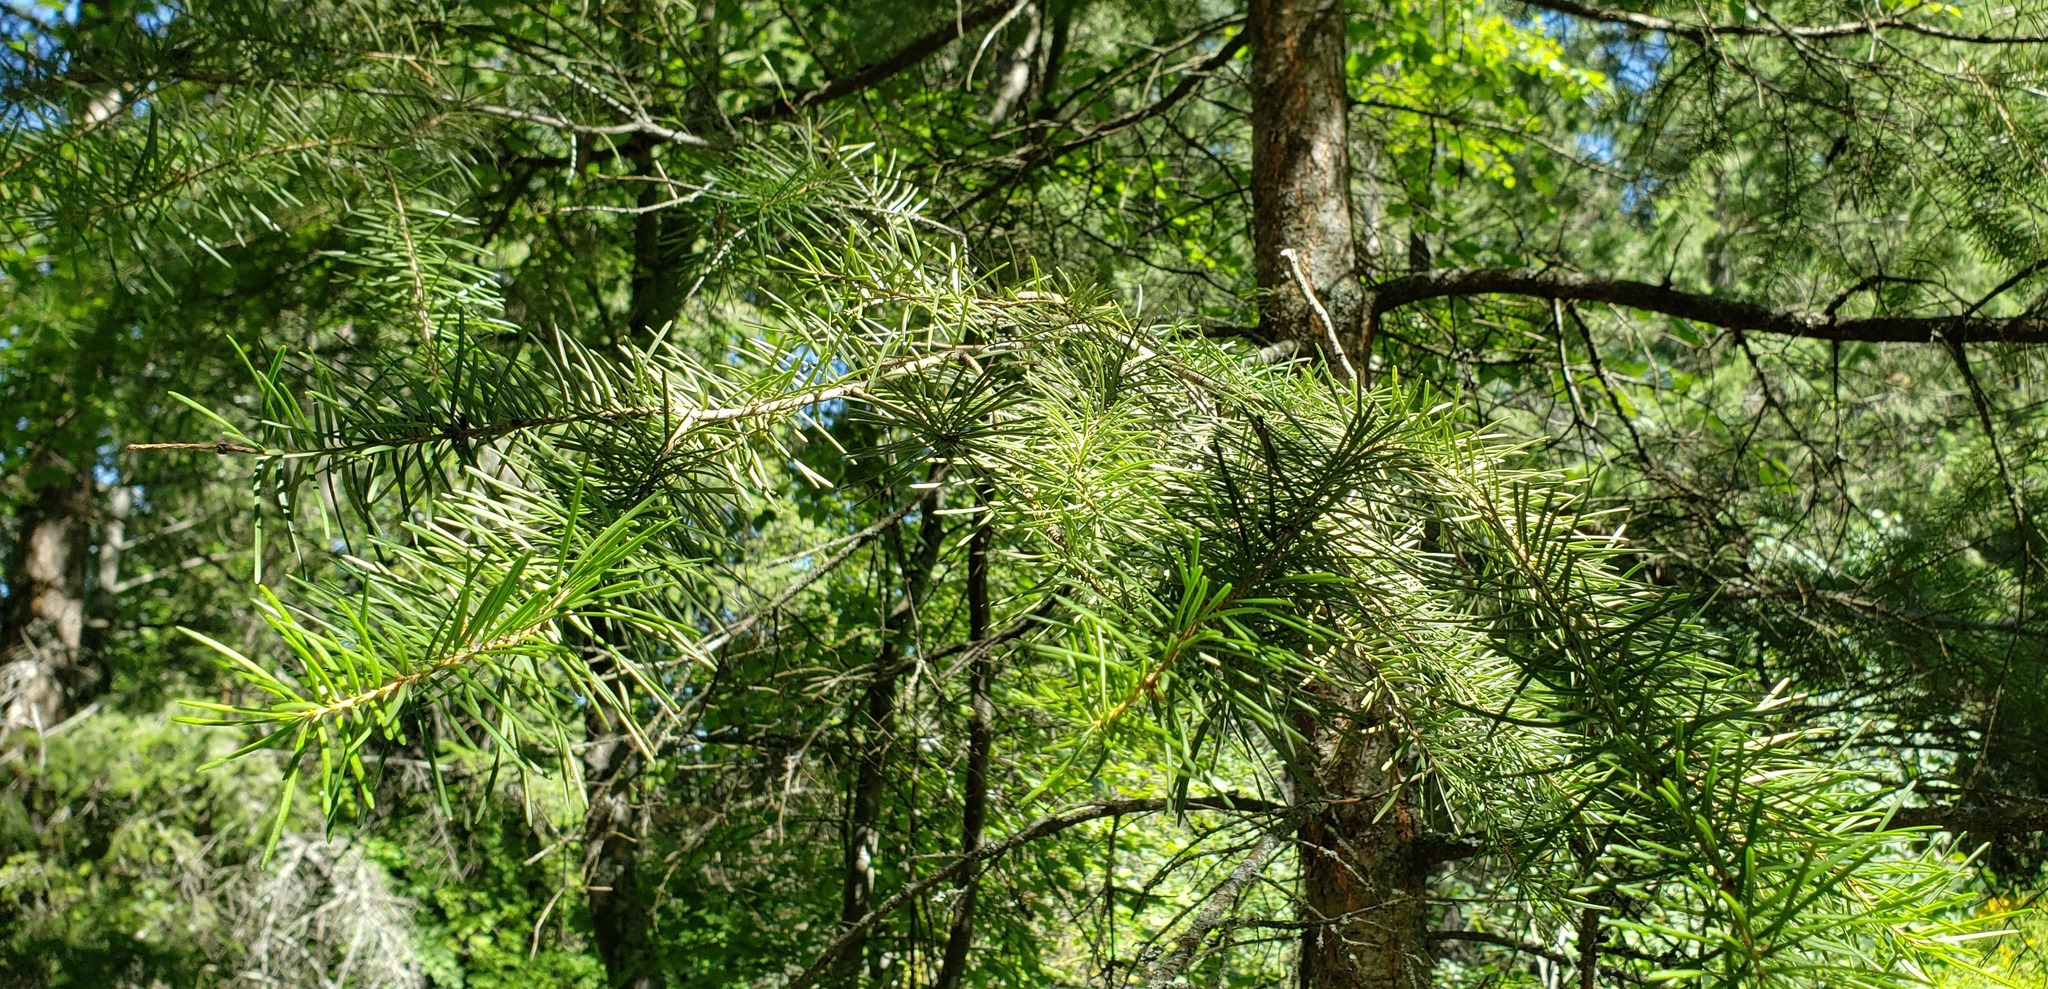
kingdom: Plantae
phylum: Tracheophyta
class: Pinopsida
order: Pinales
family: Pinaceae
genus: Pseudotsuga
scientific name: Pseudotsuga menziesii
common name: Douglas fir
